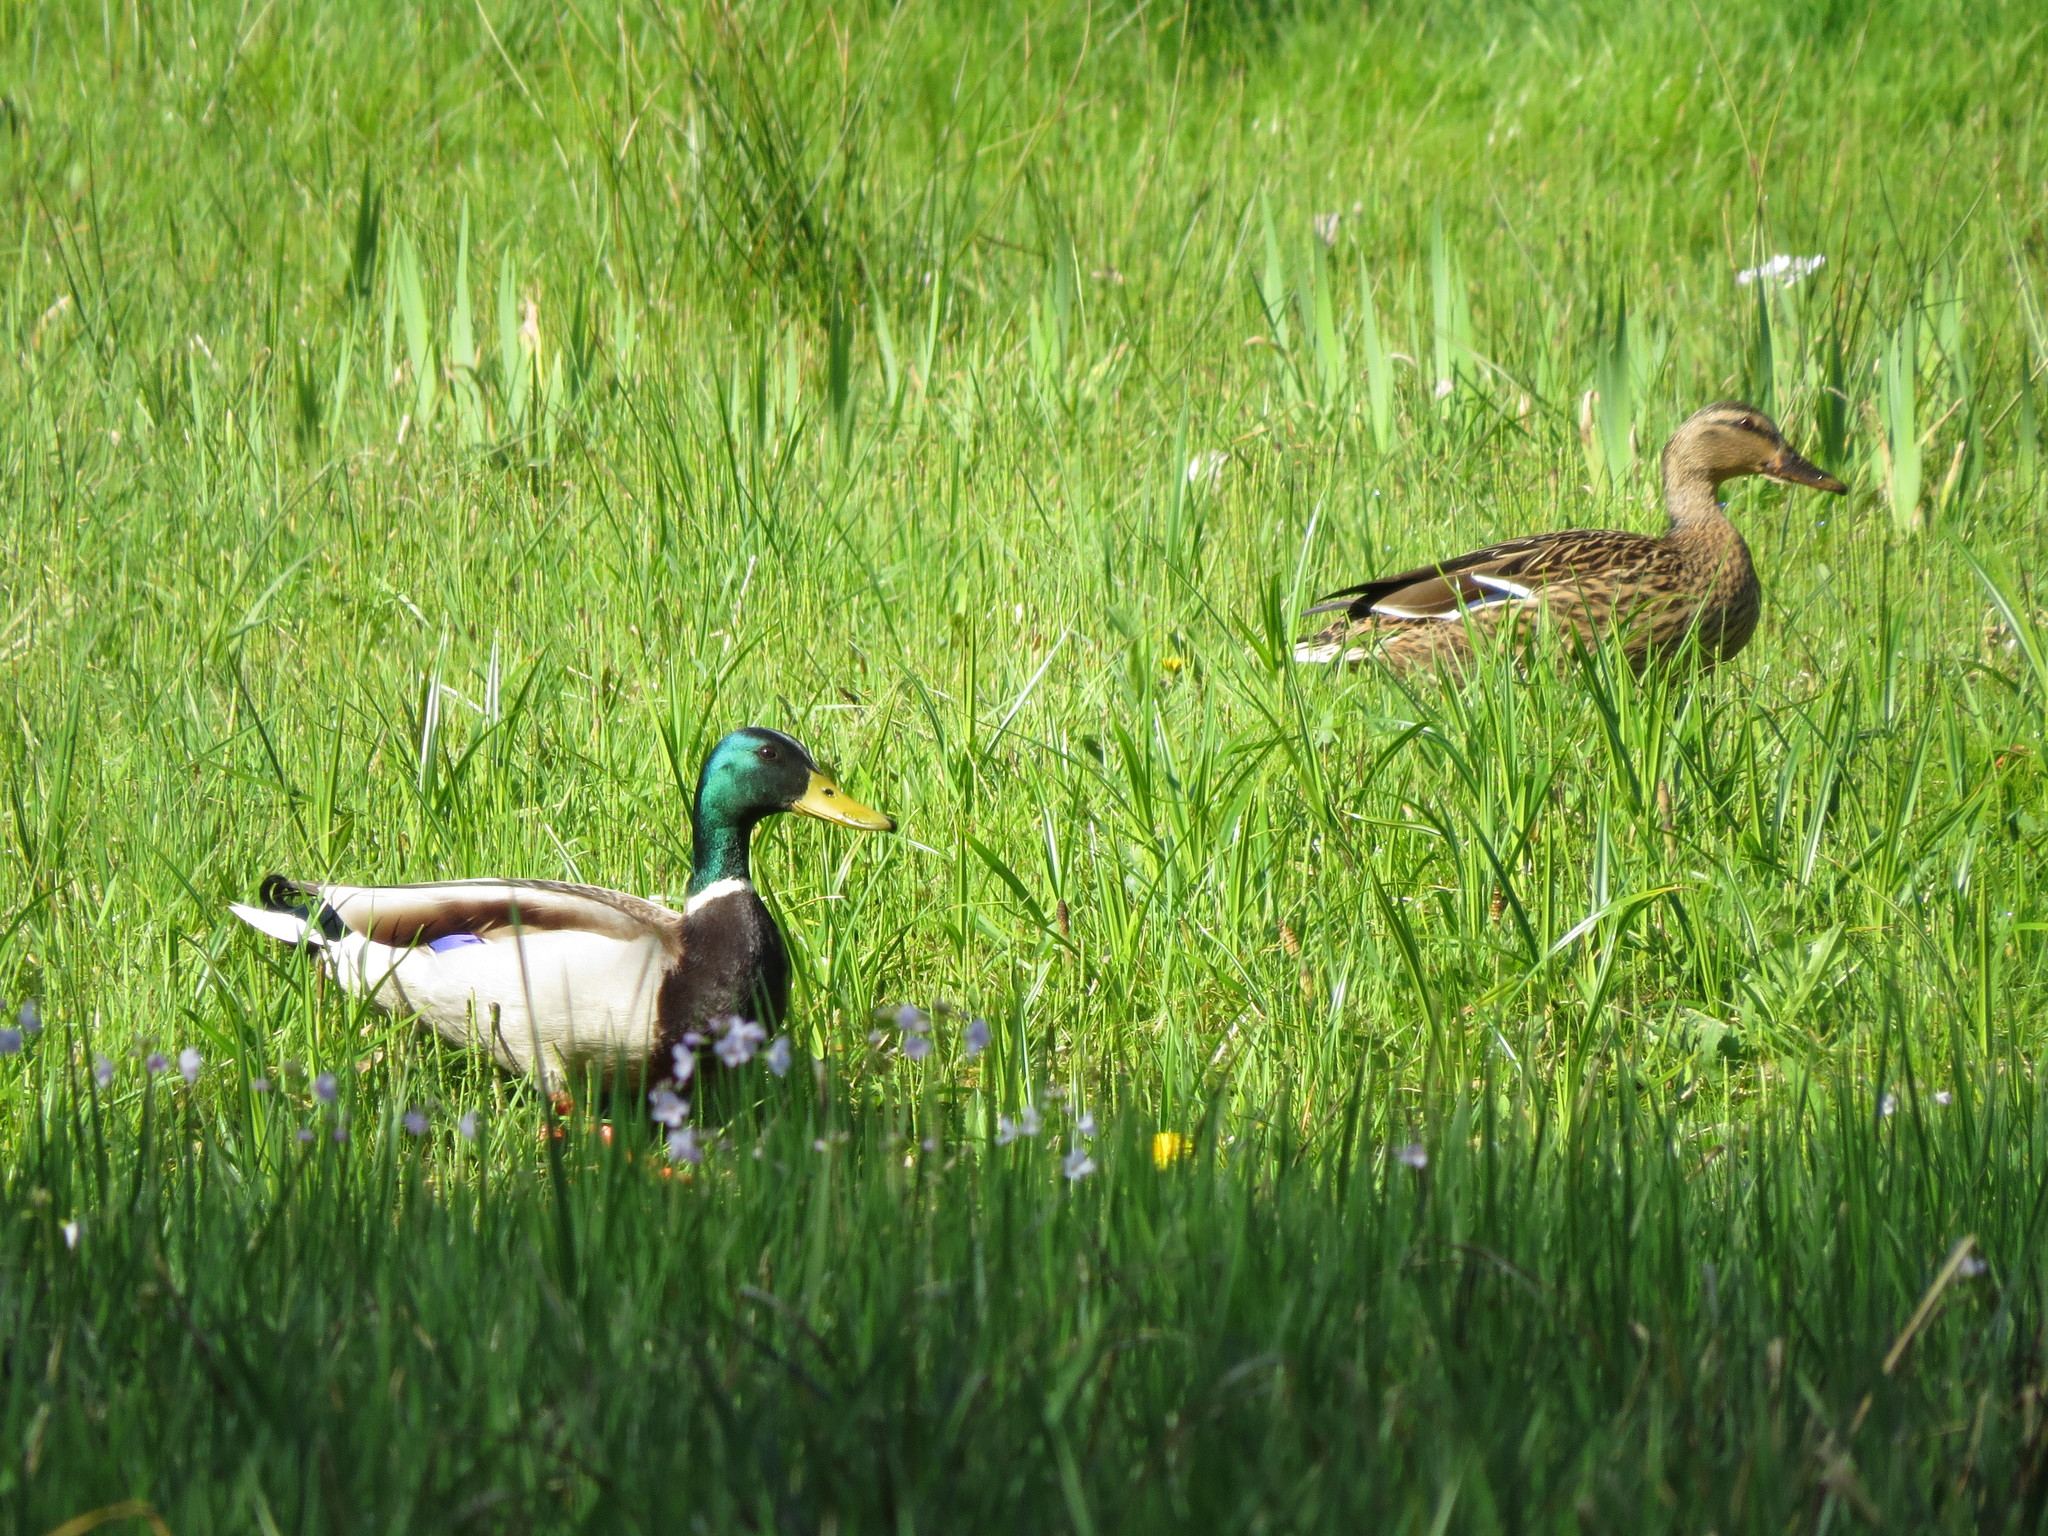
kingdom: Animalia
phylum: Chordata
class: Aves
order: Anseriformes
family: Anatidae
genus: Anas
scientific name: Anas platyrhynchos
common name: Mallard
